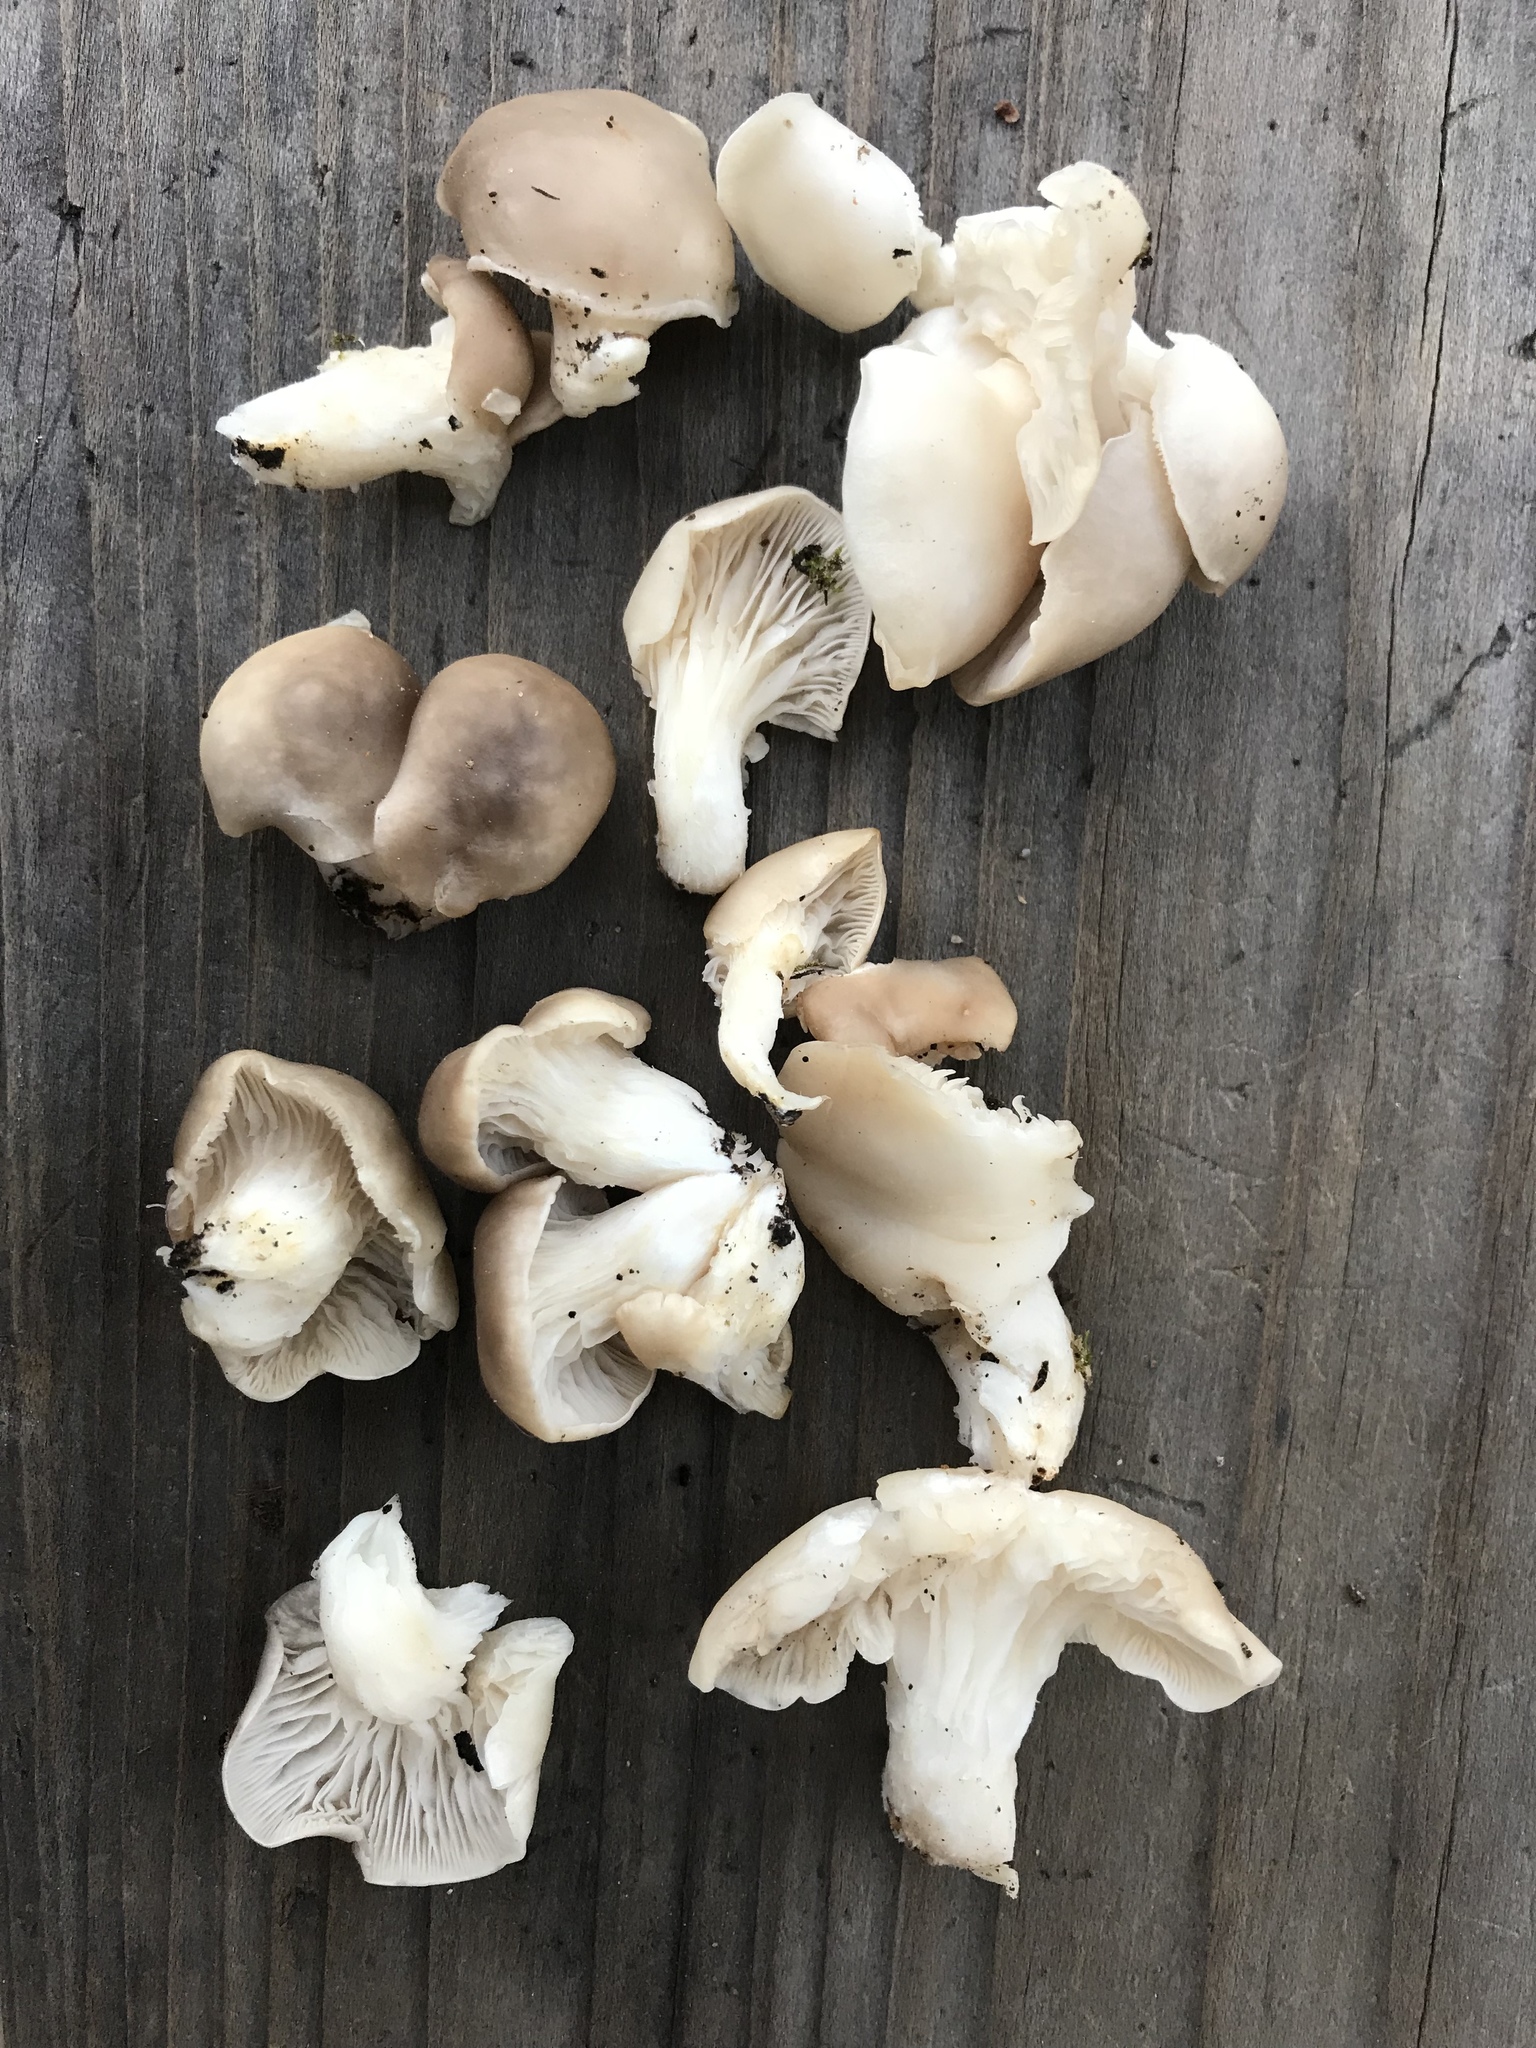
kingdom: Fungi
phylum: Basidiomycota
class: Agaricomycetes
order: Agaricales
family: Pleurotaceae
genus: Pleurotus
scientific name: Pleurotus ostreatus
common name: Oyster mushroom
